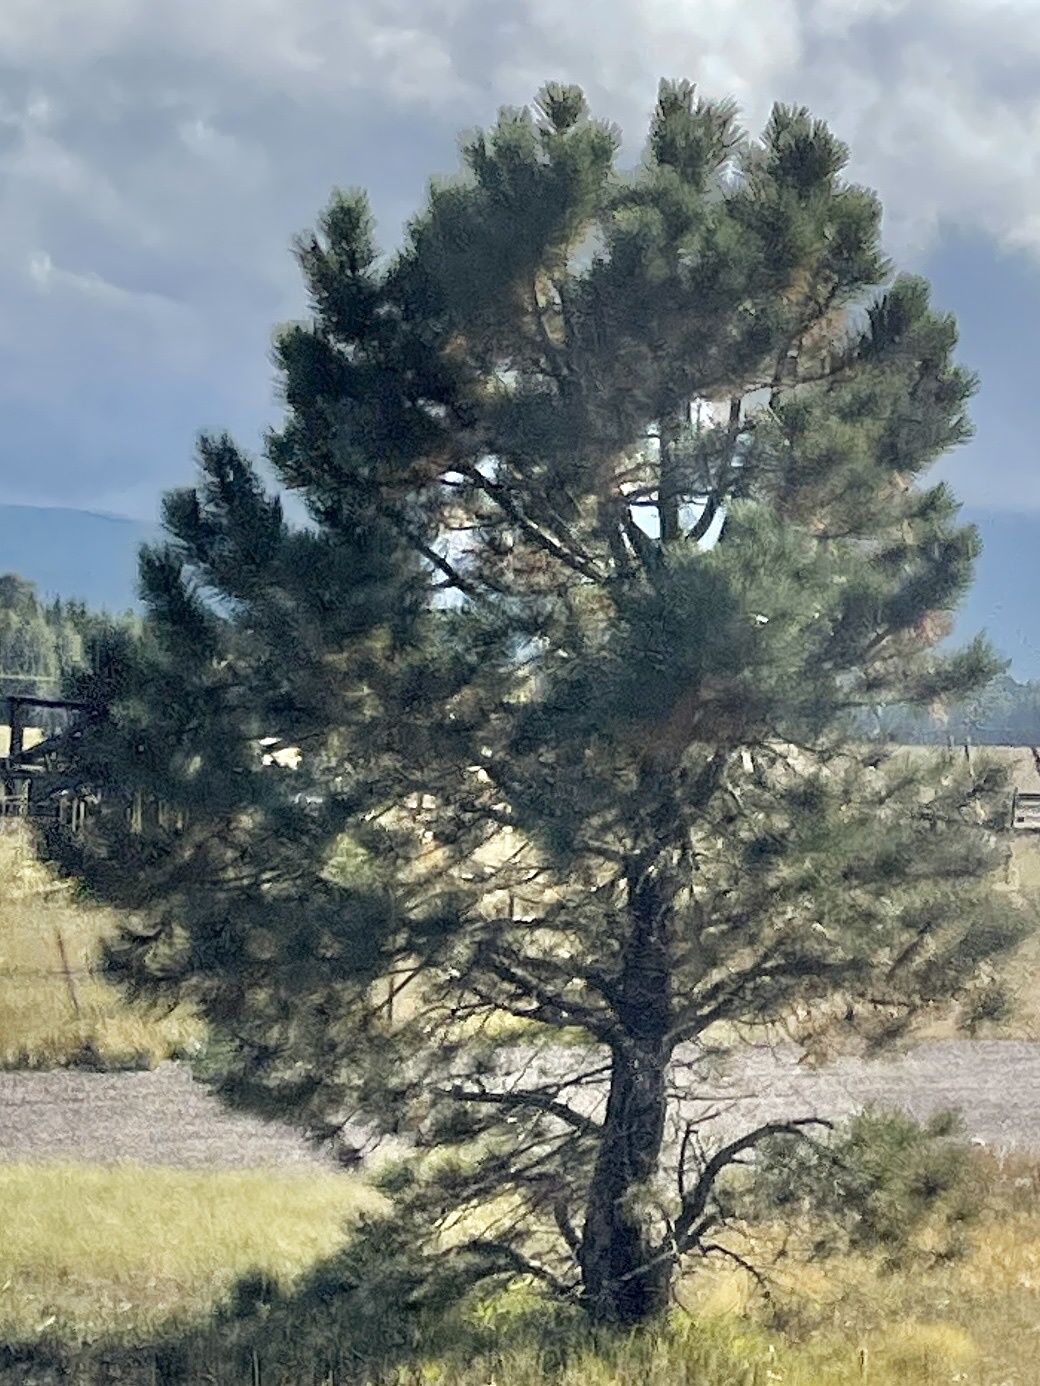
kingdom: Plantae
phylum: Tracheophyta
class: Pinopsida
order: Pinales
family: Pinaceae
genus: Pinus
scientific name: Pinus ponderosa
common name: Western yellow-pine
